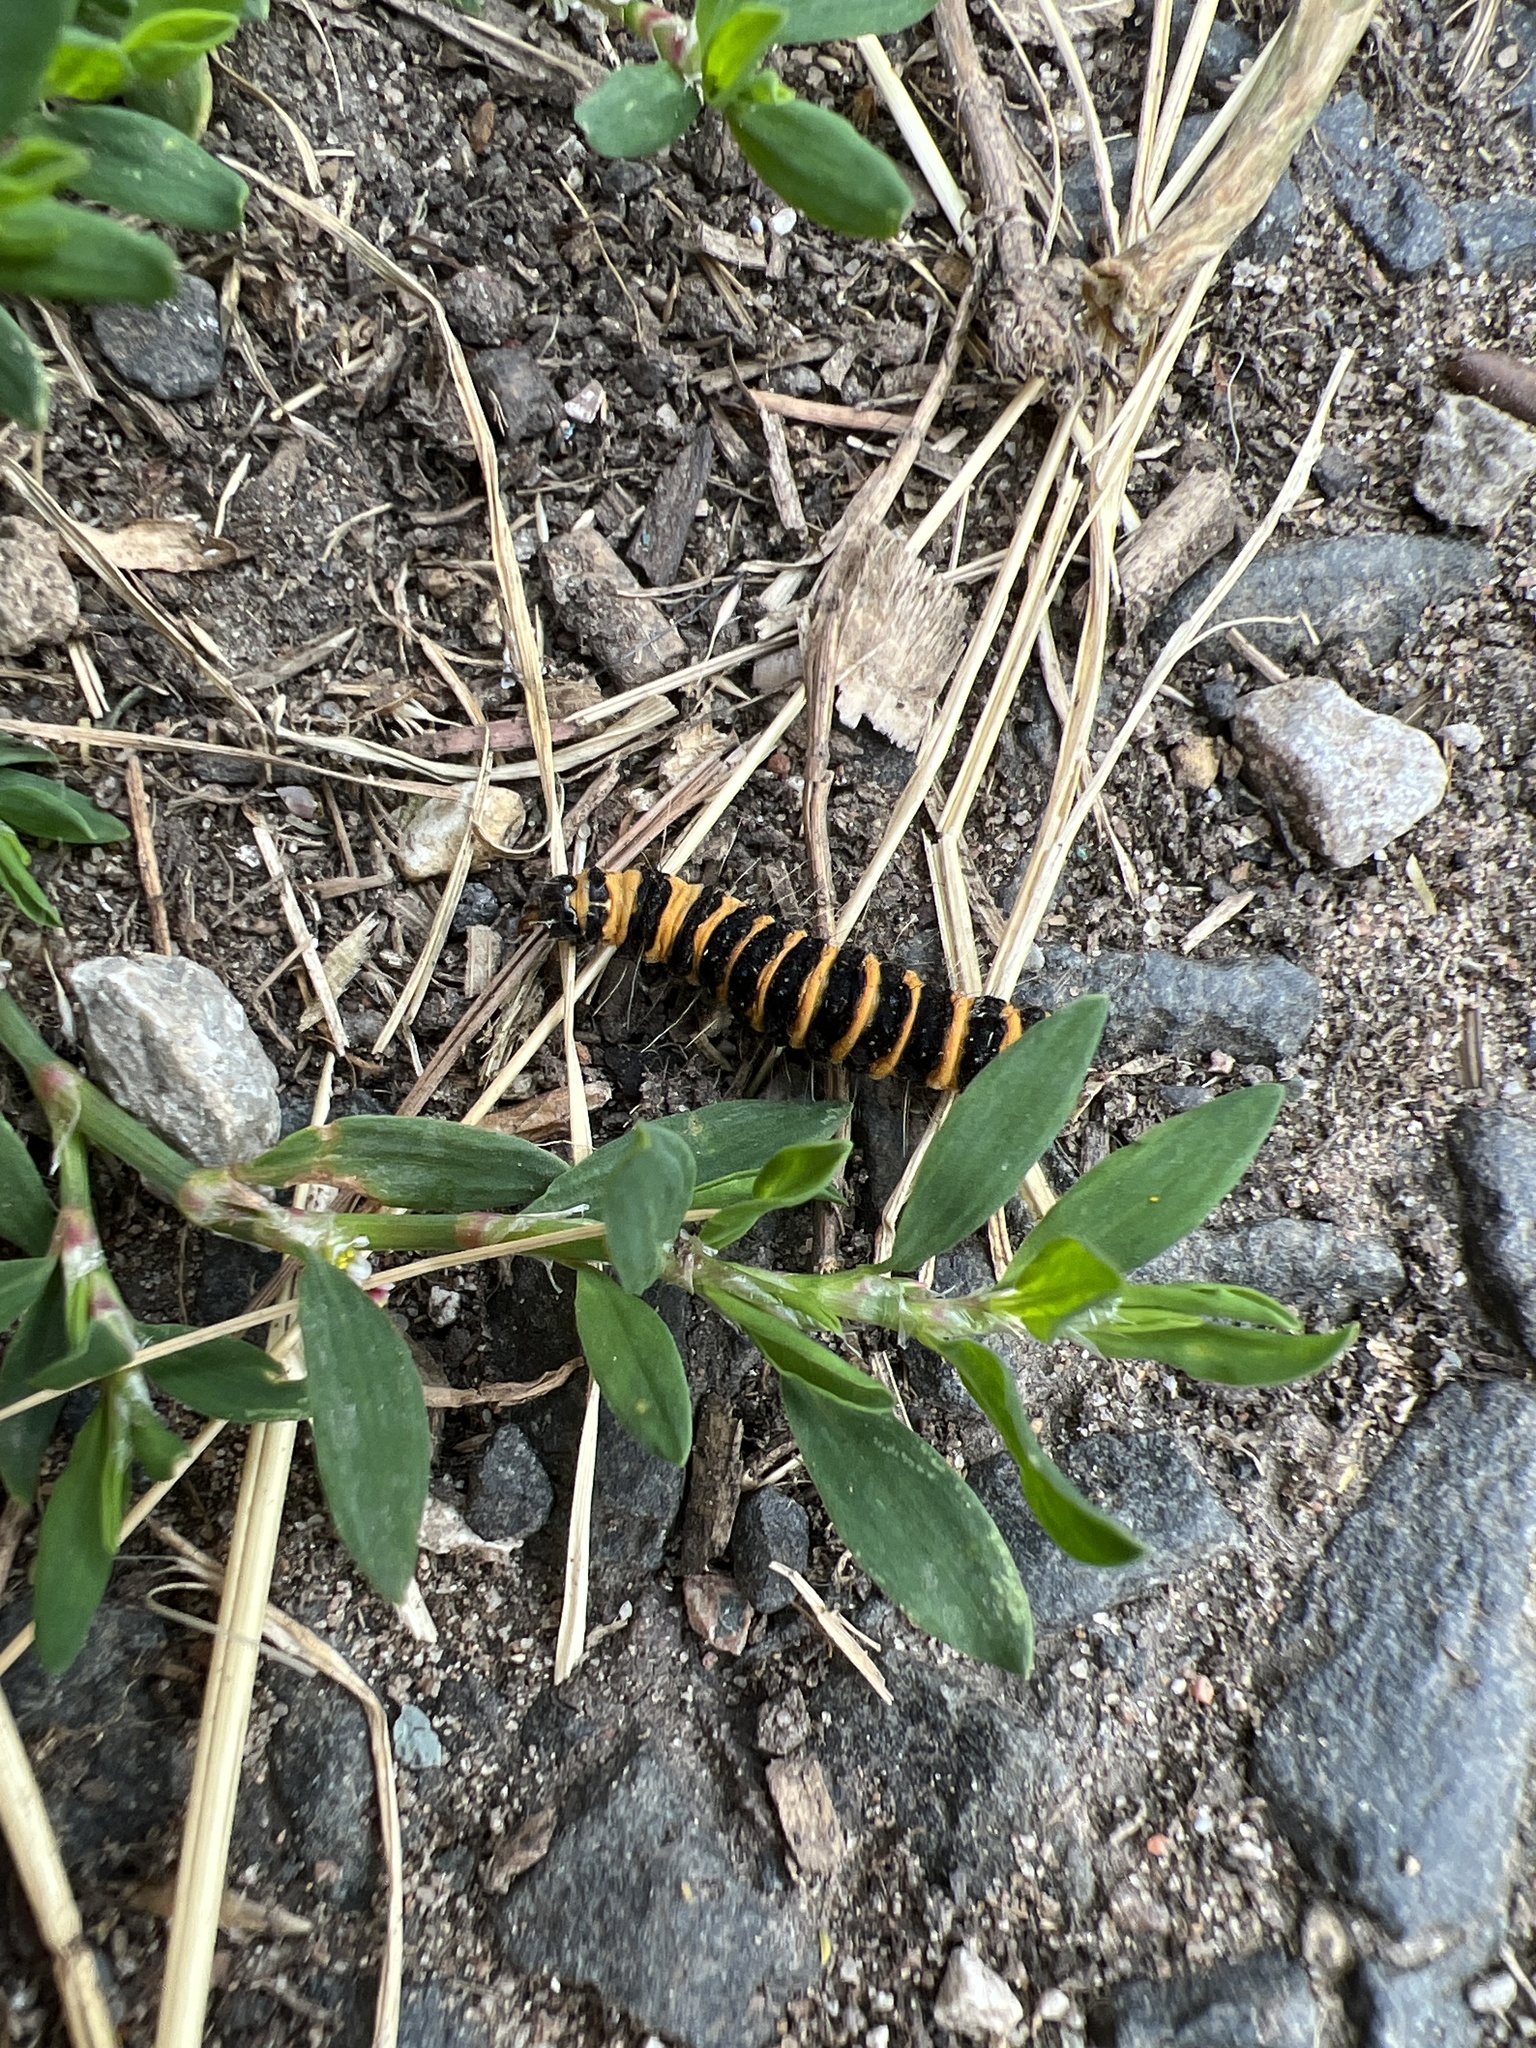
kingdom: Animalia
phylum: Arthropoda
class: Insecta
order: Lepidoptera
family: Erebidae
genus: Tyria
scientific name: Tyria jacobaeae
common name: Cinnabar
